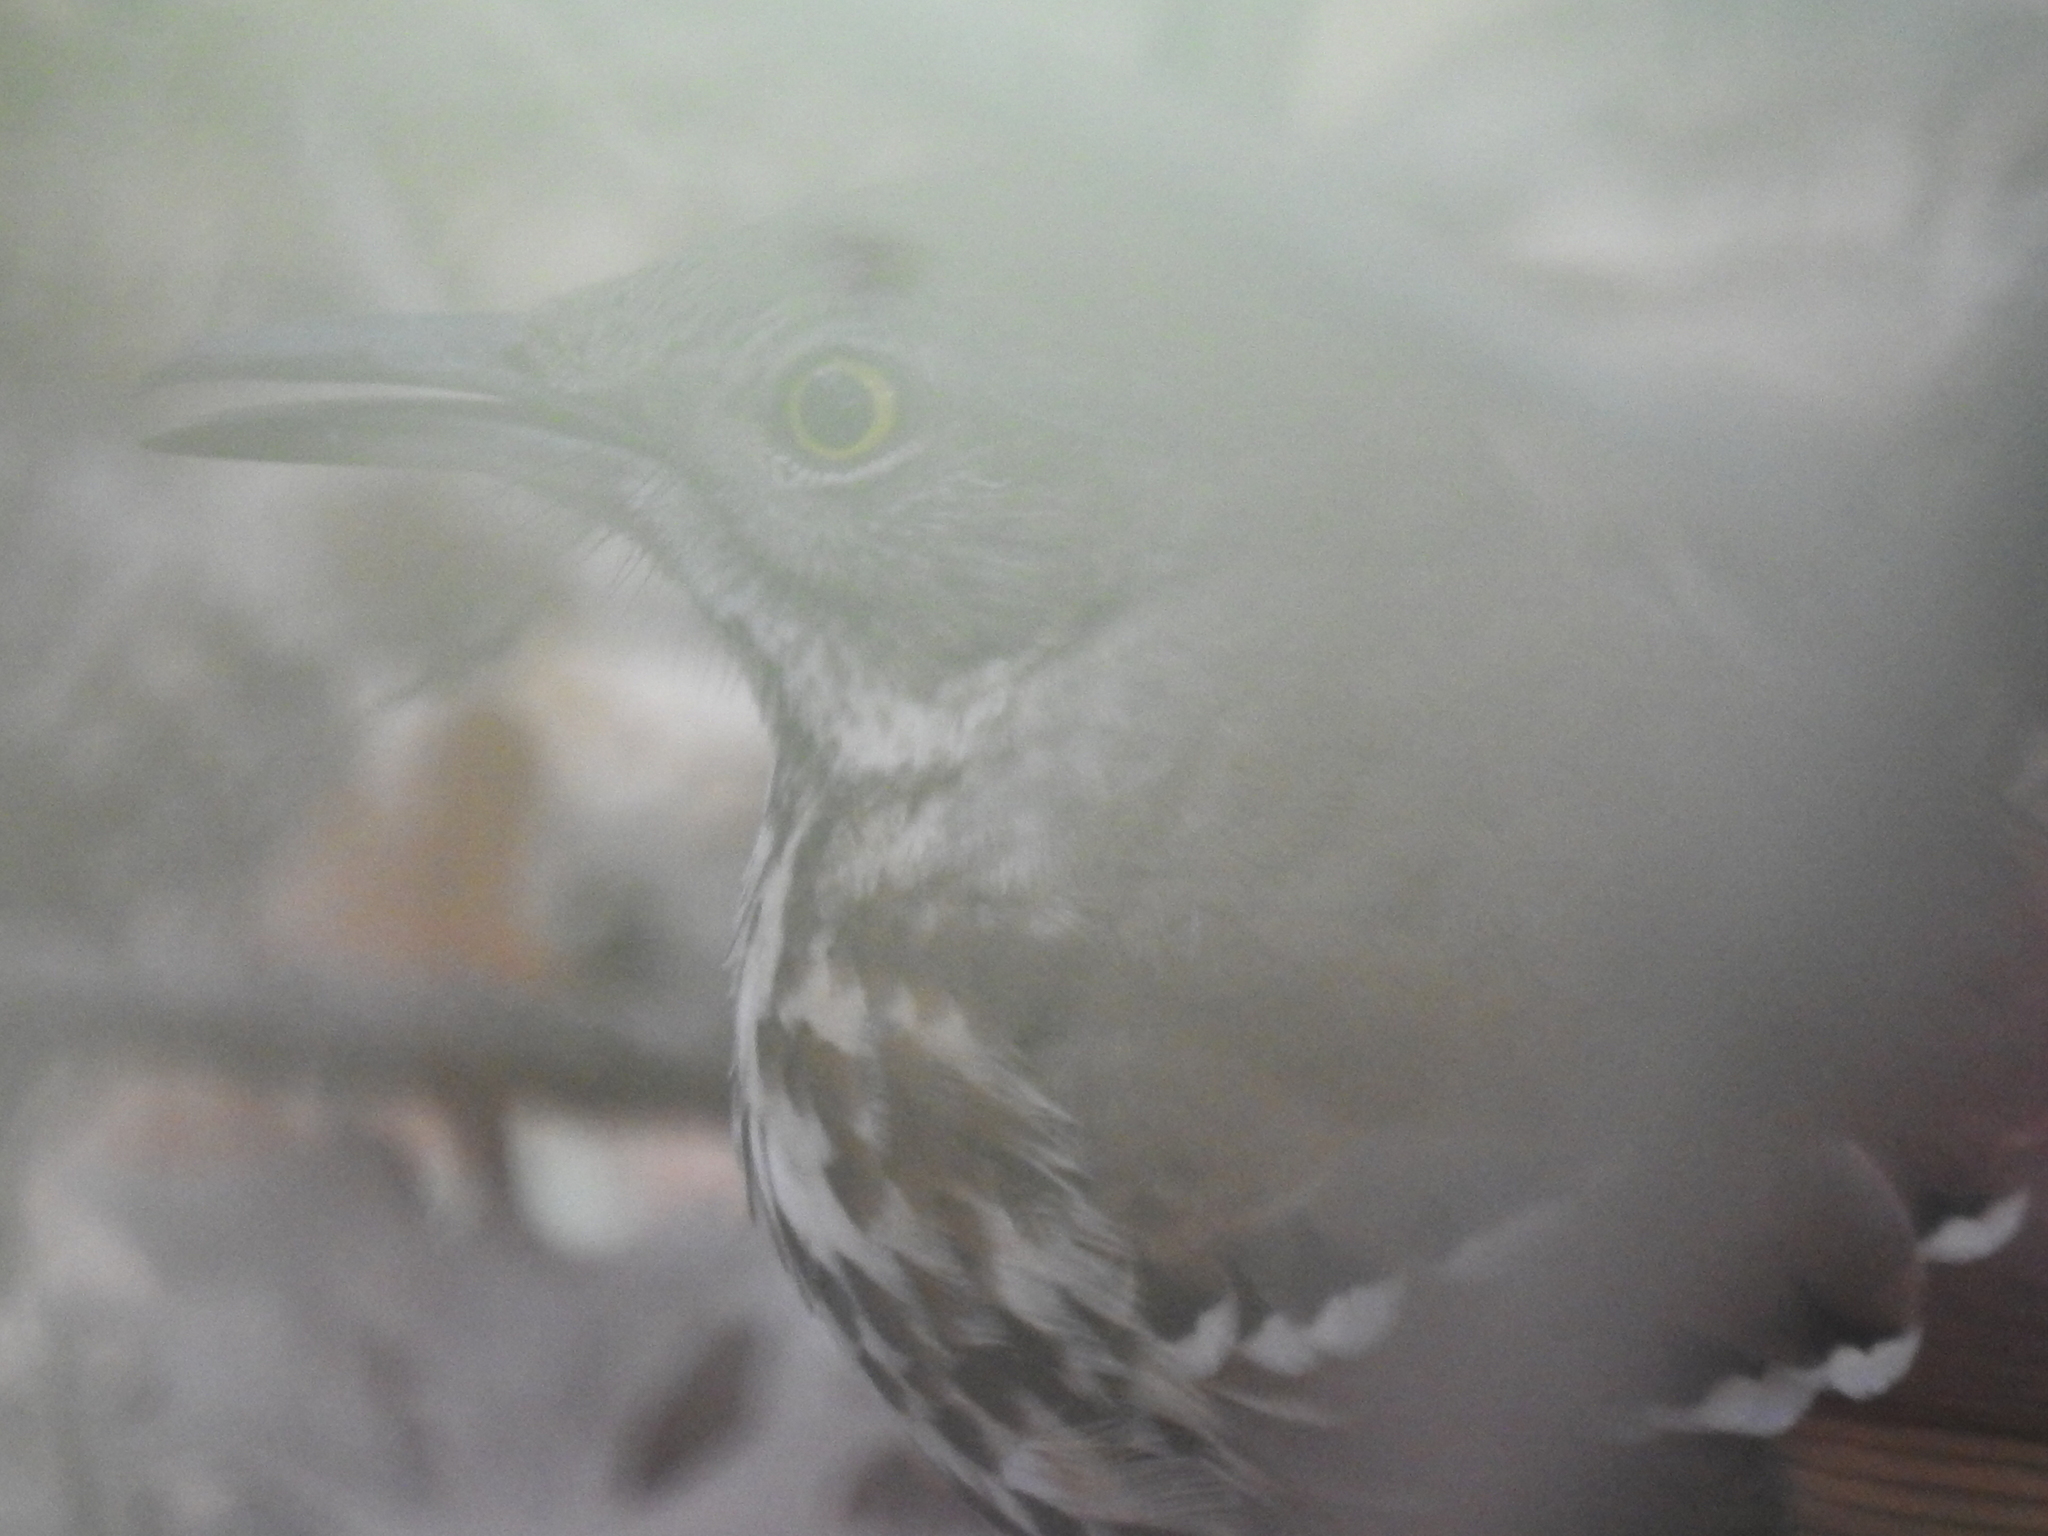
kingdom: Animalia
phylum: Chordata
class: Aves
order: Passeriformes
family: Mimidae
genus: Toxostoma
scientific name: Toxostoma rufum
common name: Brown thrasher
